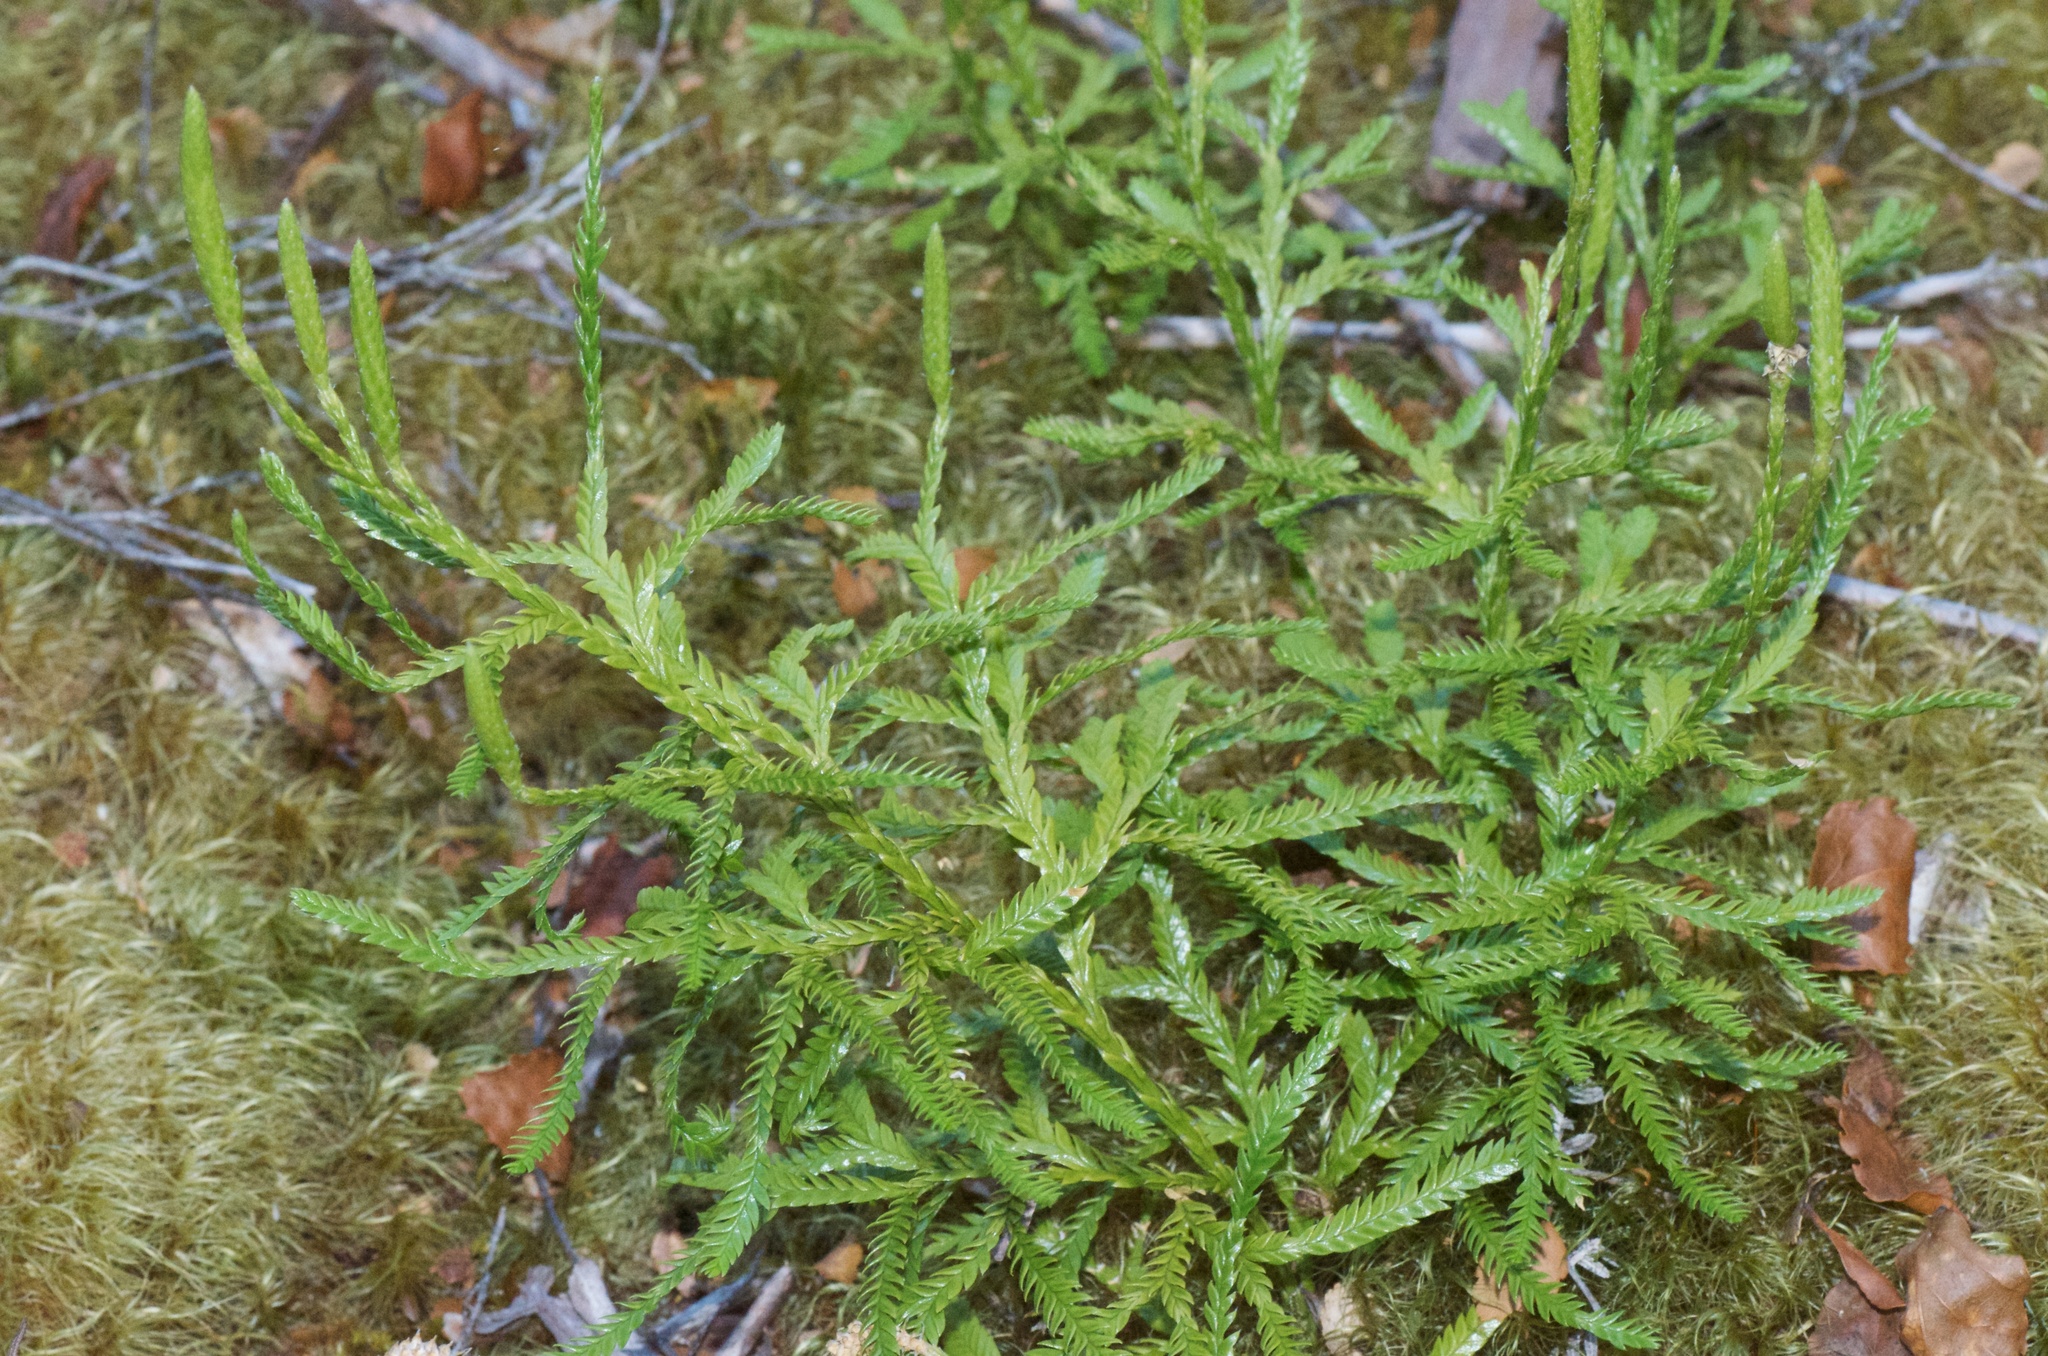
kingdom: Plantae
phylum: Tracheophyta
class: Lycopodiopsida
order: Lycopodiales
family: Lycopodiaceae
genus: Diphasium
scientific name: Diphasium scariosum
